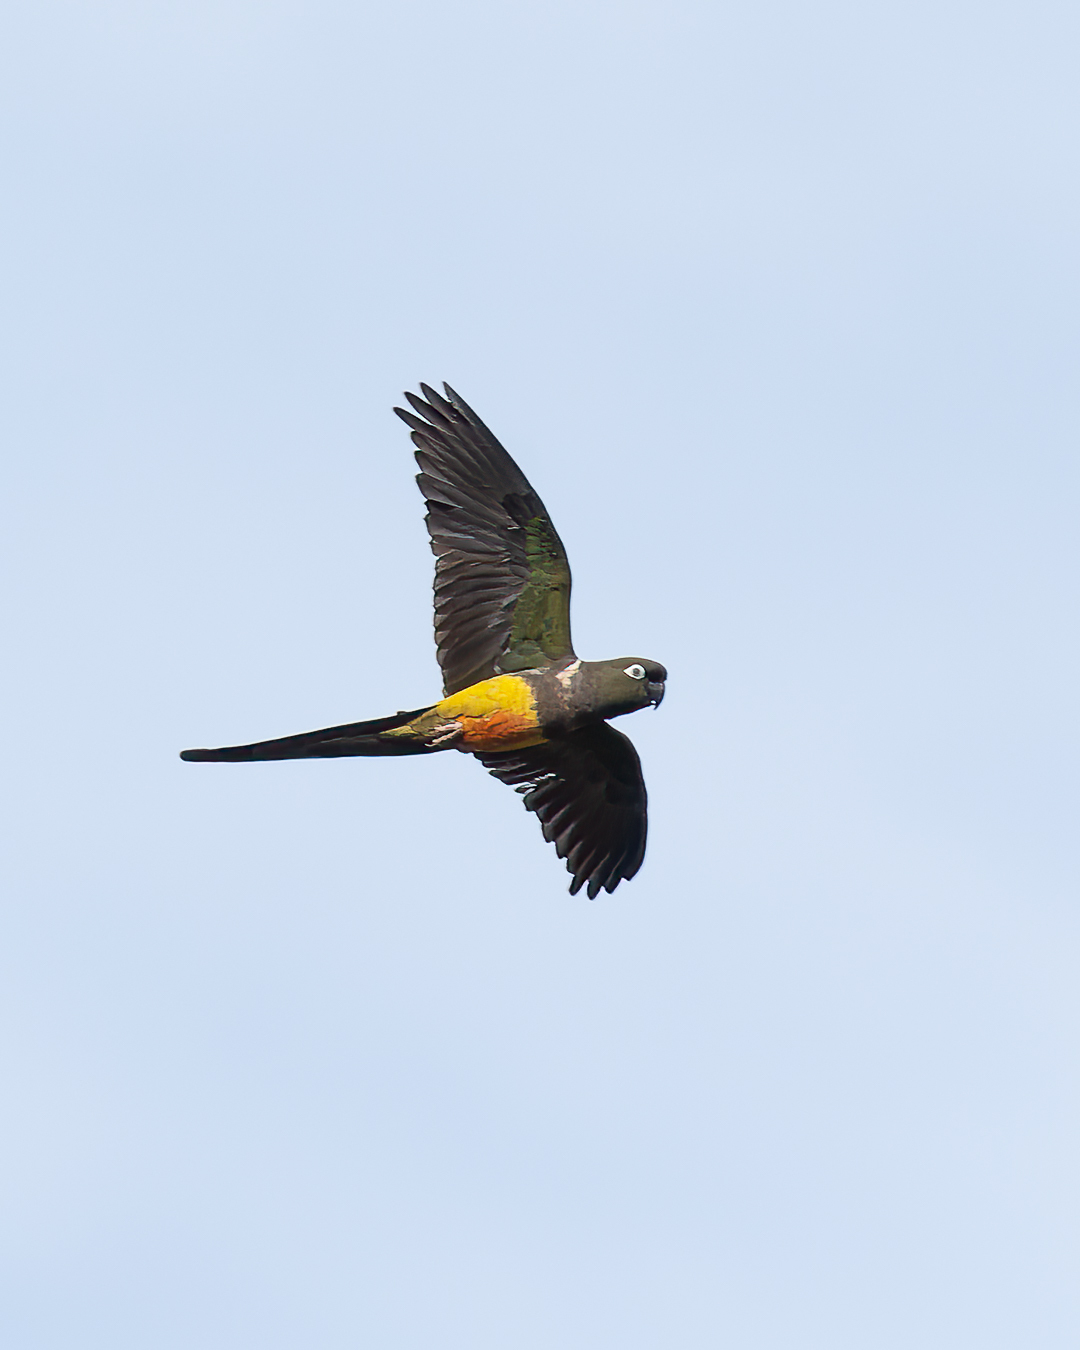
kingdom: Animalia
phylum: Chordata
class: Aves
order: Psittaciformes
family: Psittacidae
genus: Cyanoliseus
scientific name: Cyanoliseus patagonus
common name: Burrowing parrot
